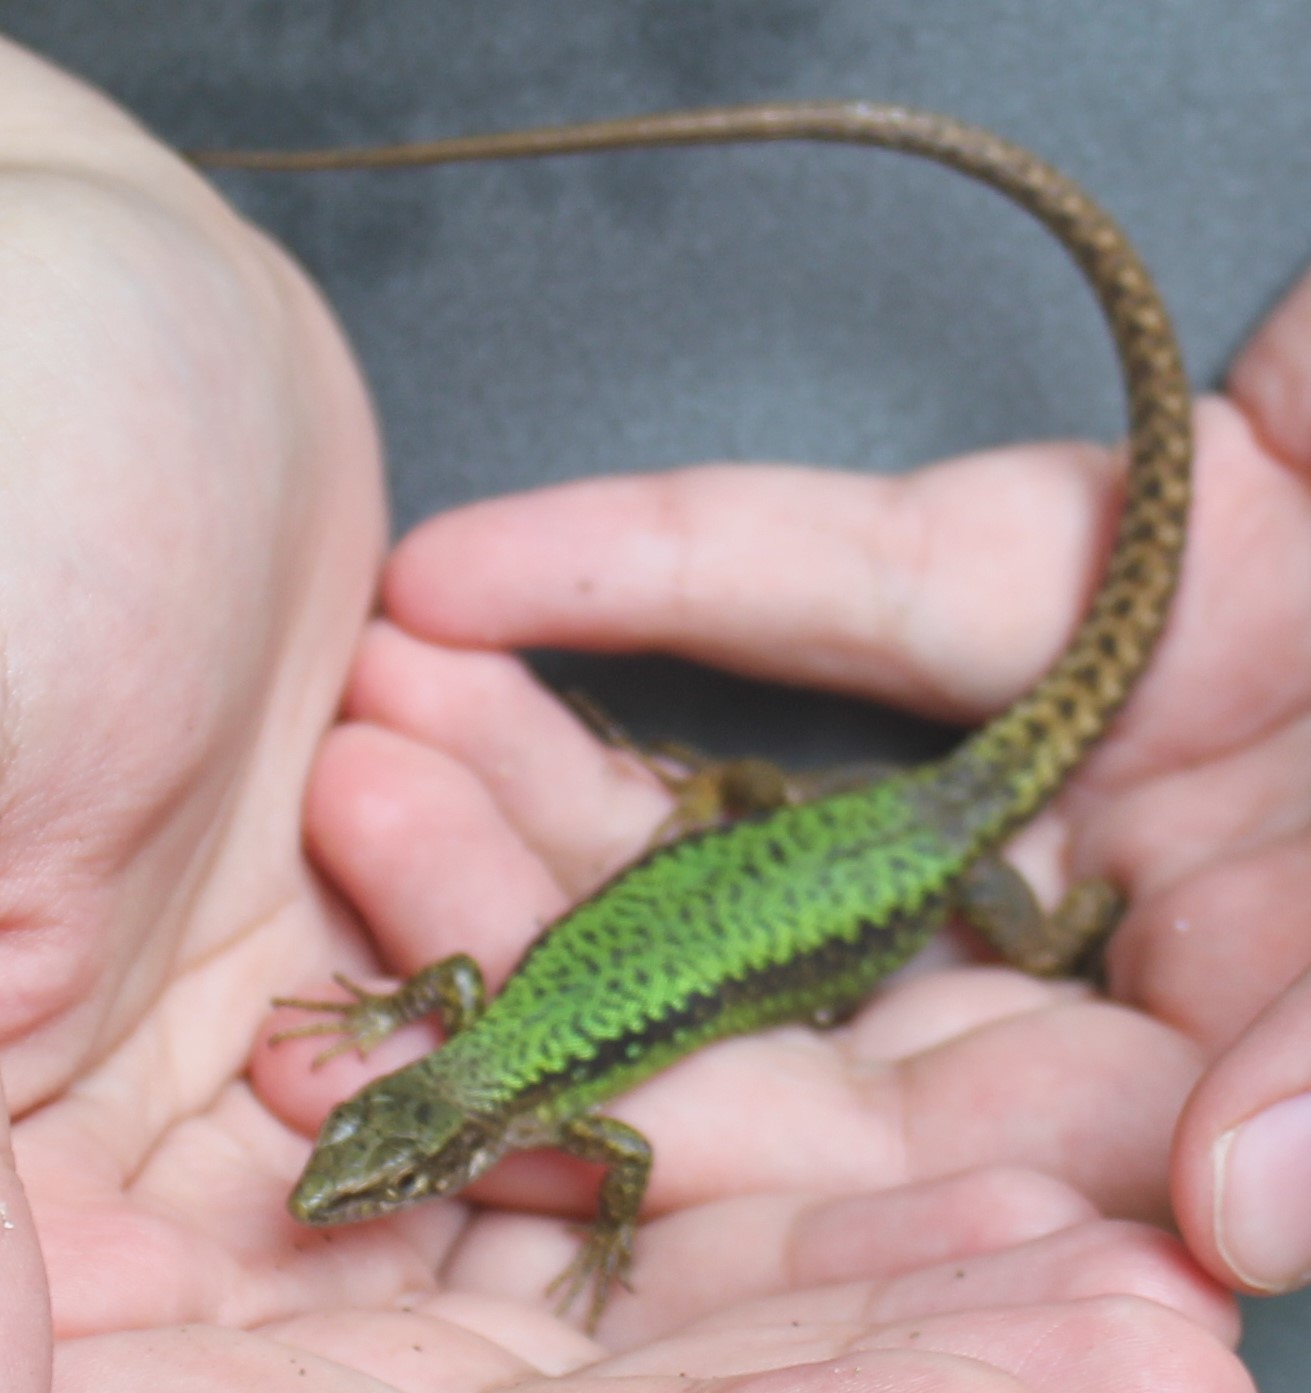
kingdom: Animalia
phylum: Chordata
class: Squamata
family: Lacertidae
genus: Darevskia
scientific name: Darevskia brauneri
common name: Brauner's rock lizard
